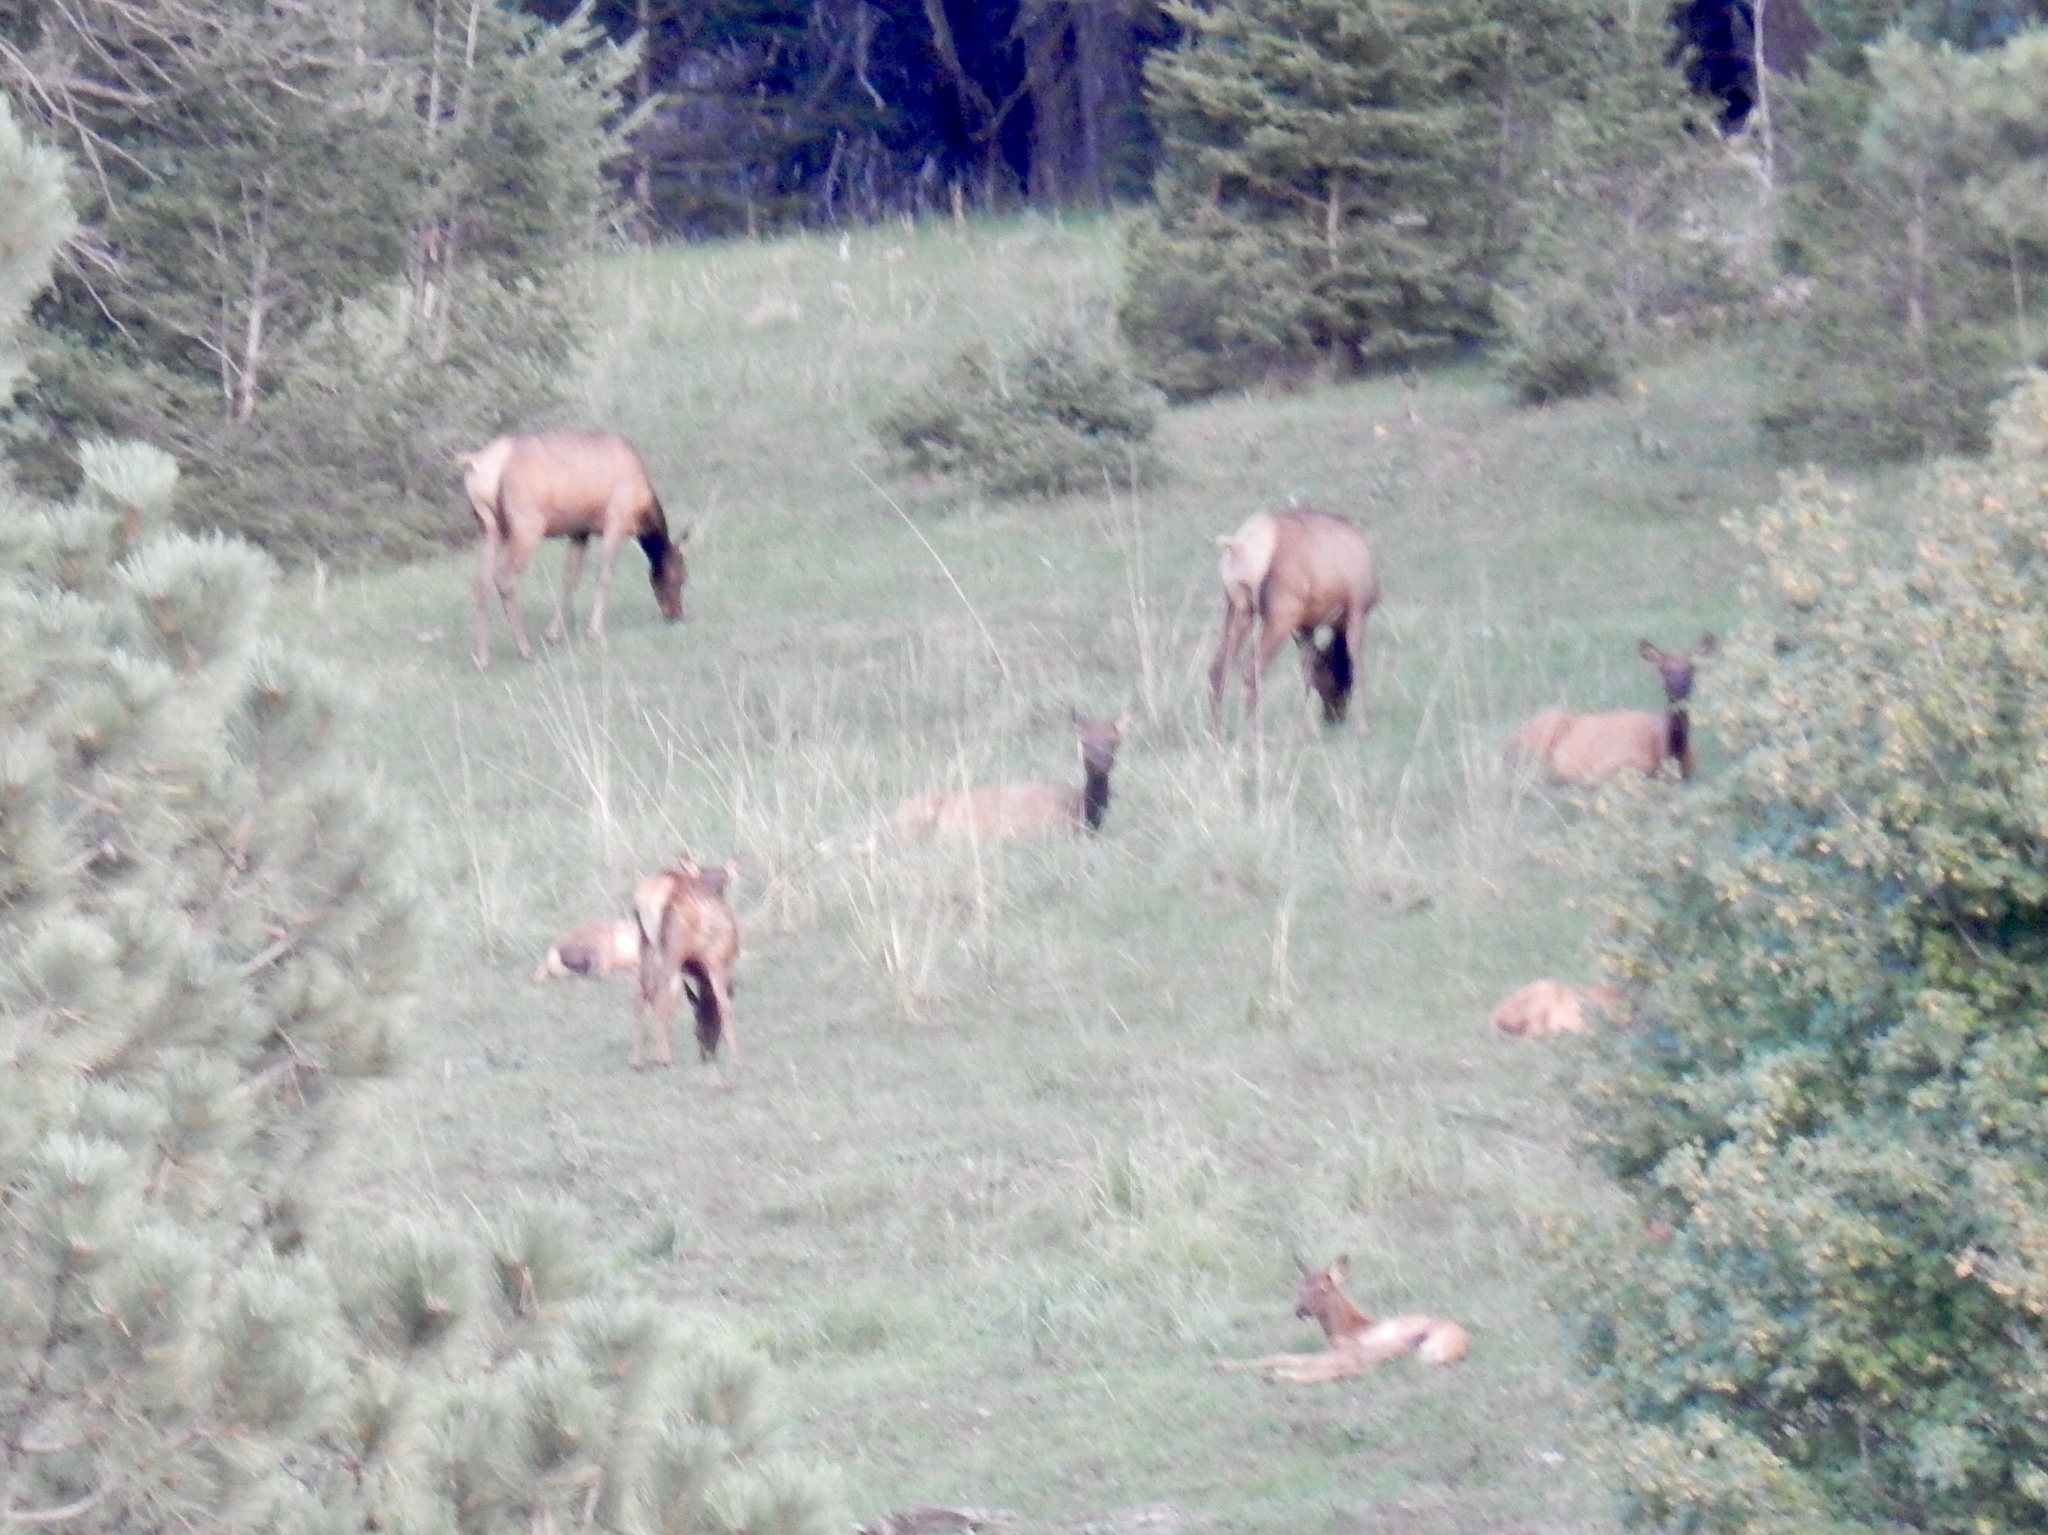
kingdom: Animalia
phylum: Chordata
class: Mammalia
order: Artiodactyla
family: Cervidae
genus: Cervus
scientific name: Cervus elaphus
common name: Red deer
